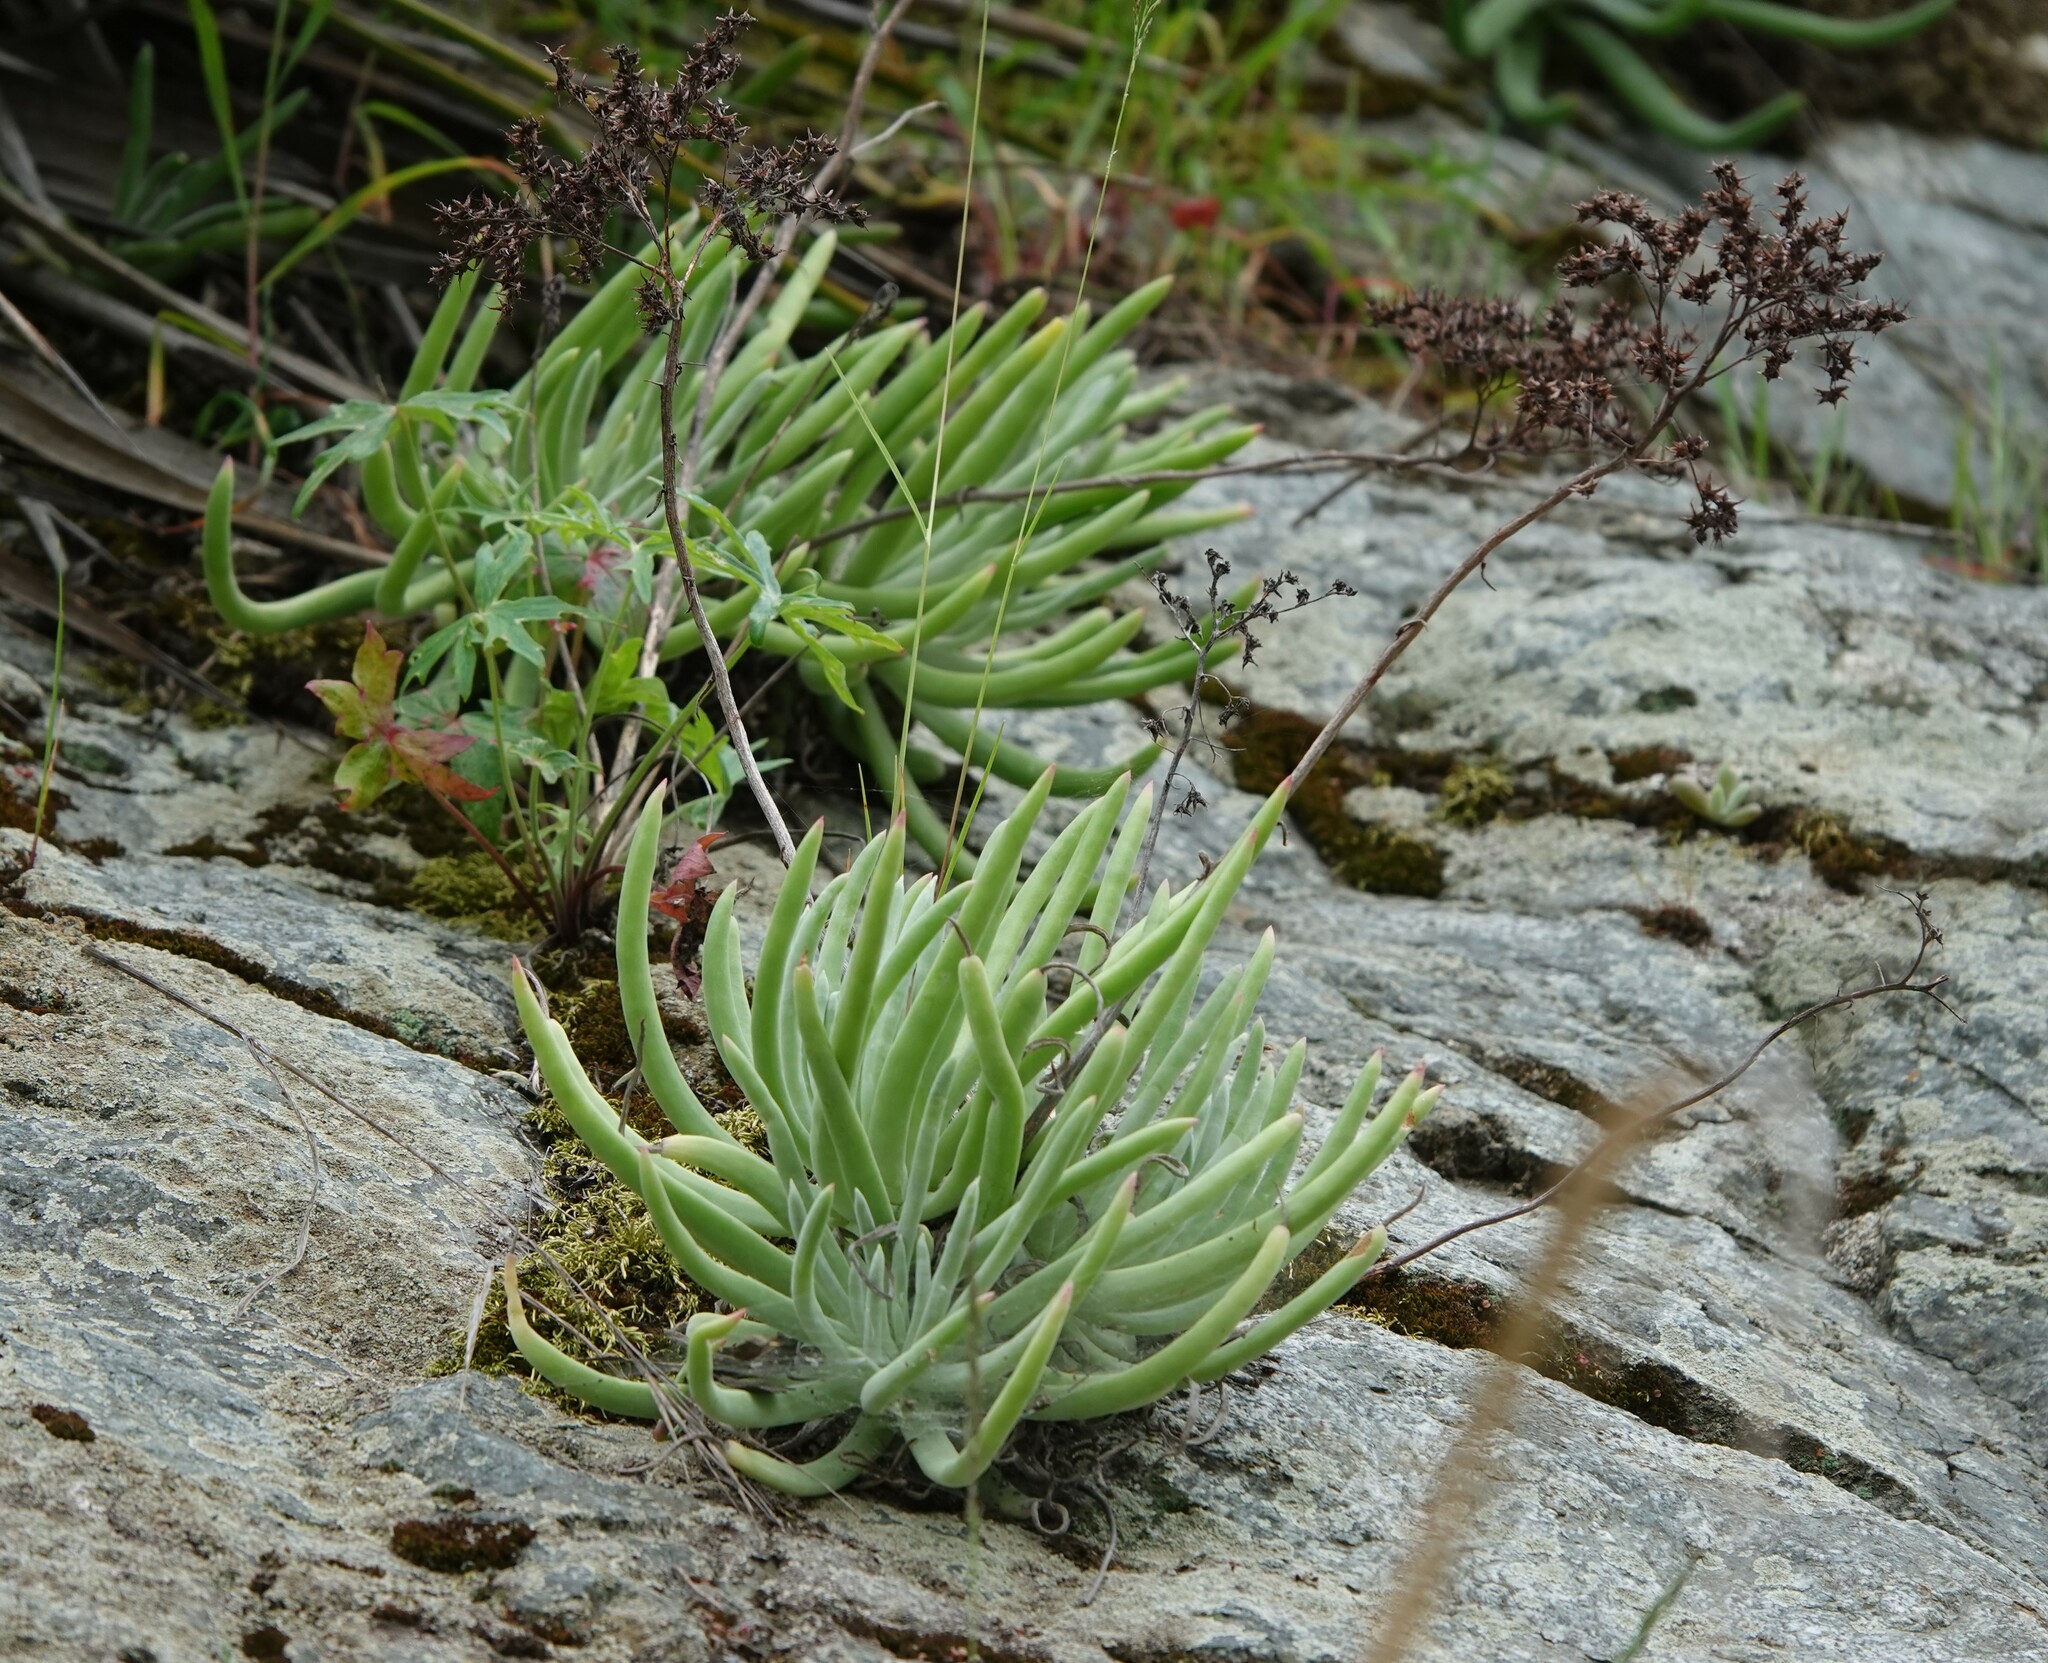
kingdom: Plantae
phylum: Tracheophyta
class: Magnoliopsida
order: Saxifragales
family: Crassulaceae
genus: Dudleya
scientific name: Dudleya densiflora
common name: San gabriel mountains dudleya
